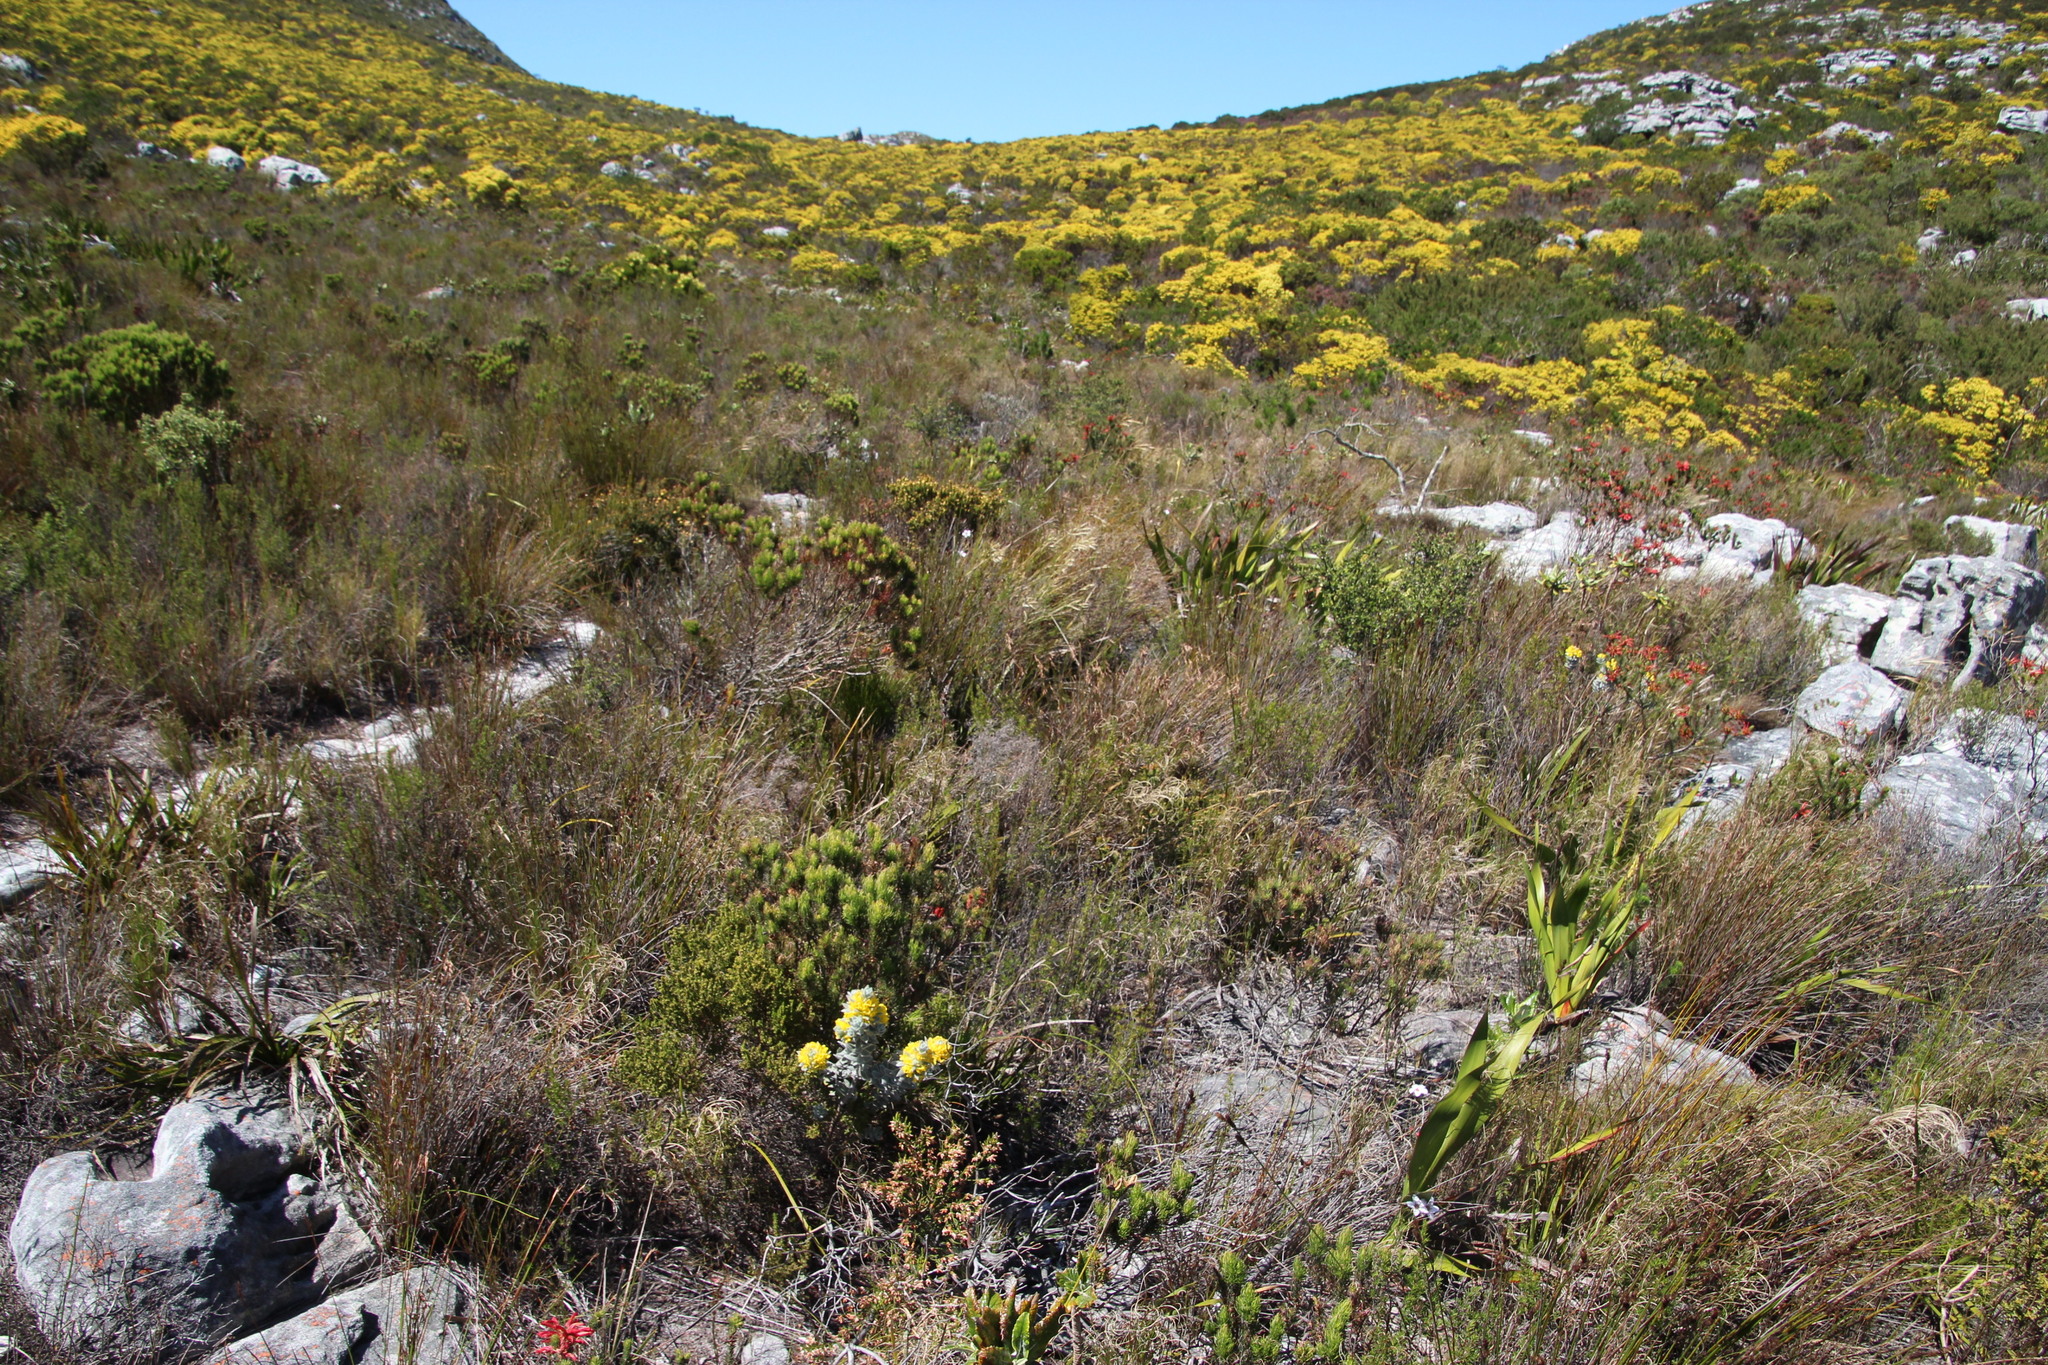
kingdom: Plantae
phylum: Tracheophyta
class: Magnoliopsida
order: Fabales
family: Fabaceae
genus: Xiphotheca
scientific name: Xiphotheca fruticosa
